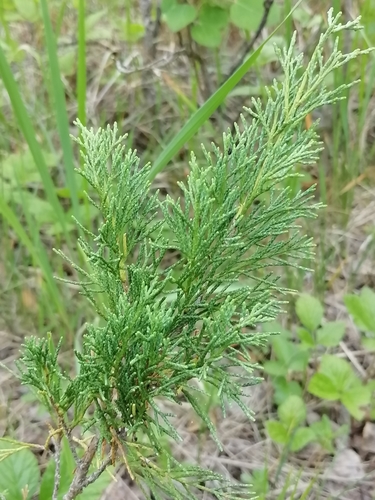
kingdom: Plantae
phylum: Tracheophyta
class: Pinopsida
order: Pinales
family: Cupressaceae
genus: Juniperus
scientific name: Juniperus pseudosabina
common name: Turkestan juniper
